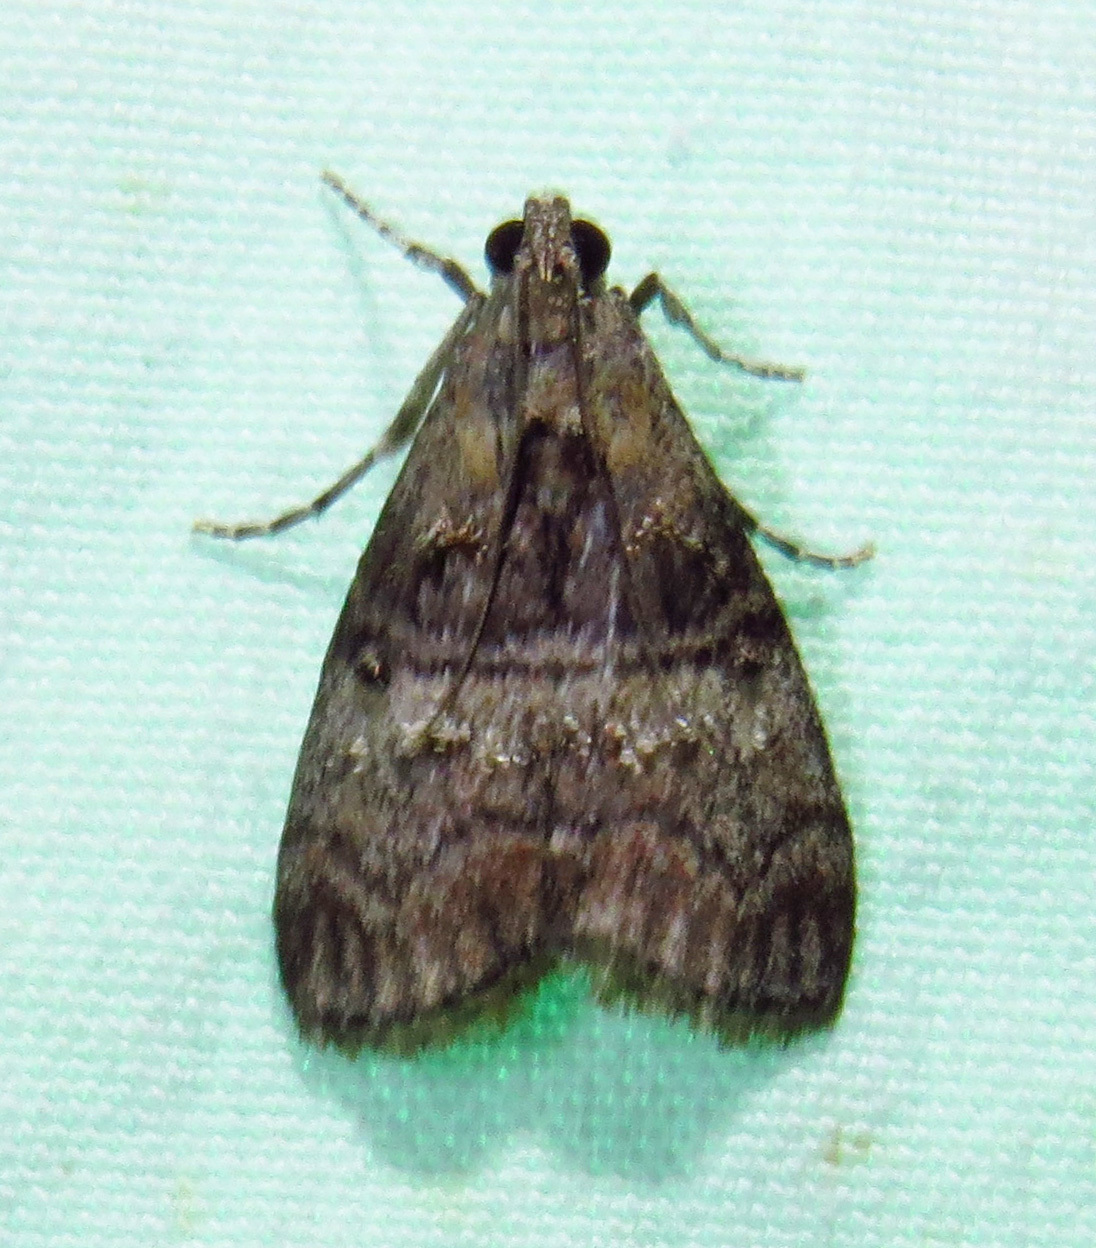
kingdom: Animalia
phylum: Arthropoda
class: Insecta
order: Lepidoptera
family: Pyralidae
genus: Pococera
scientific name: Pococera asperatella
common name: Maple webworm moth
